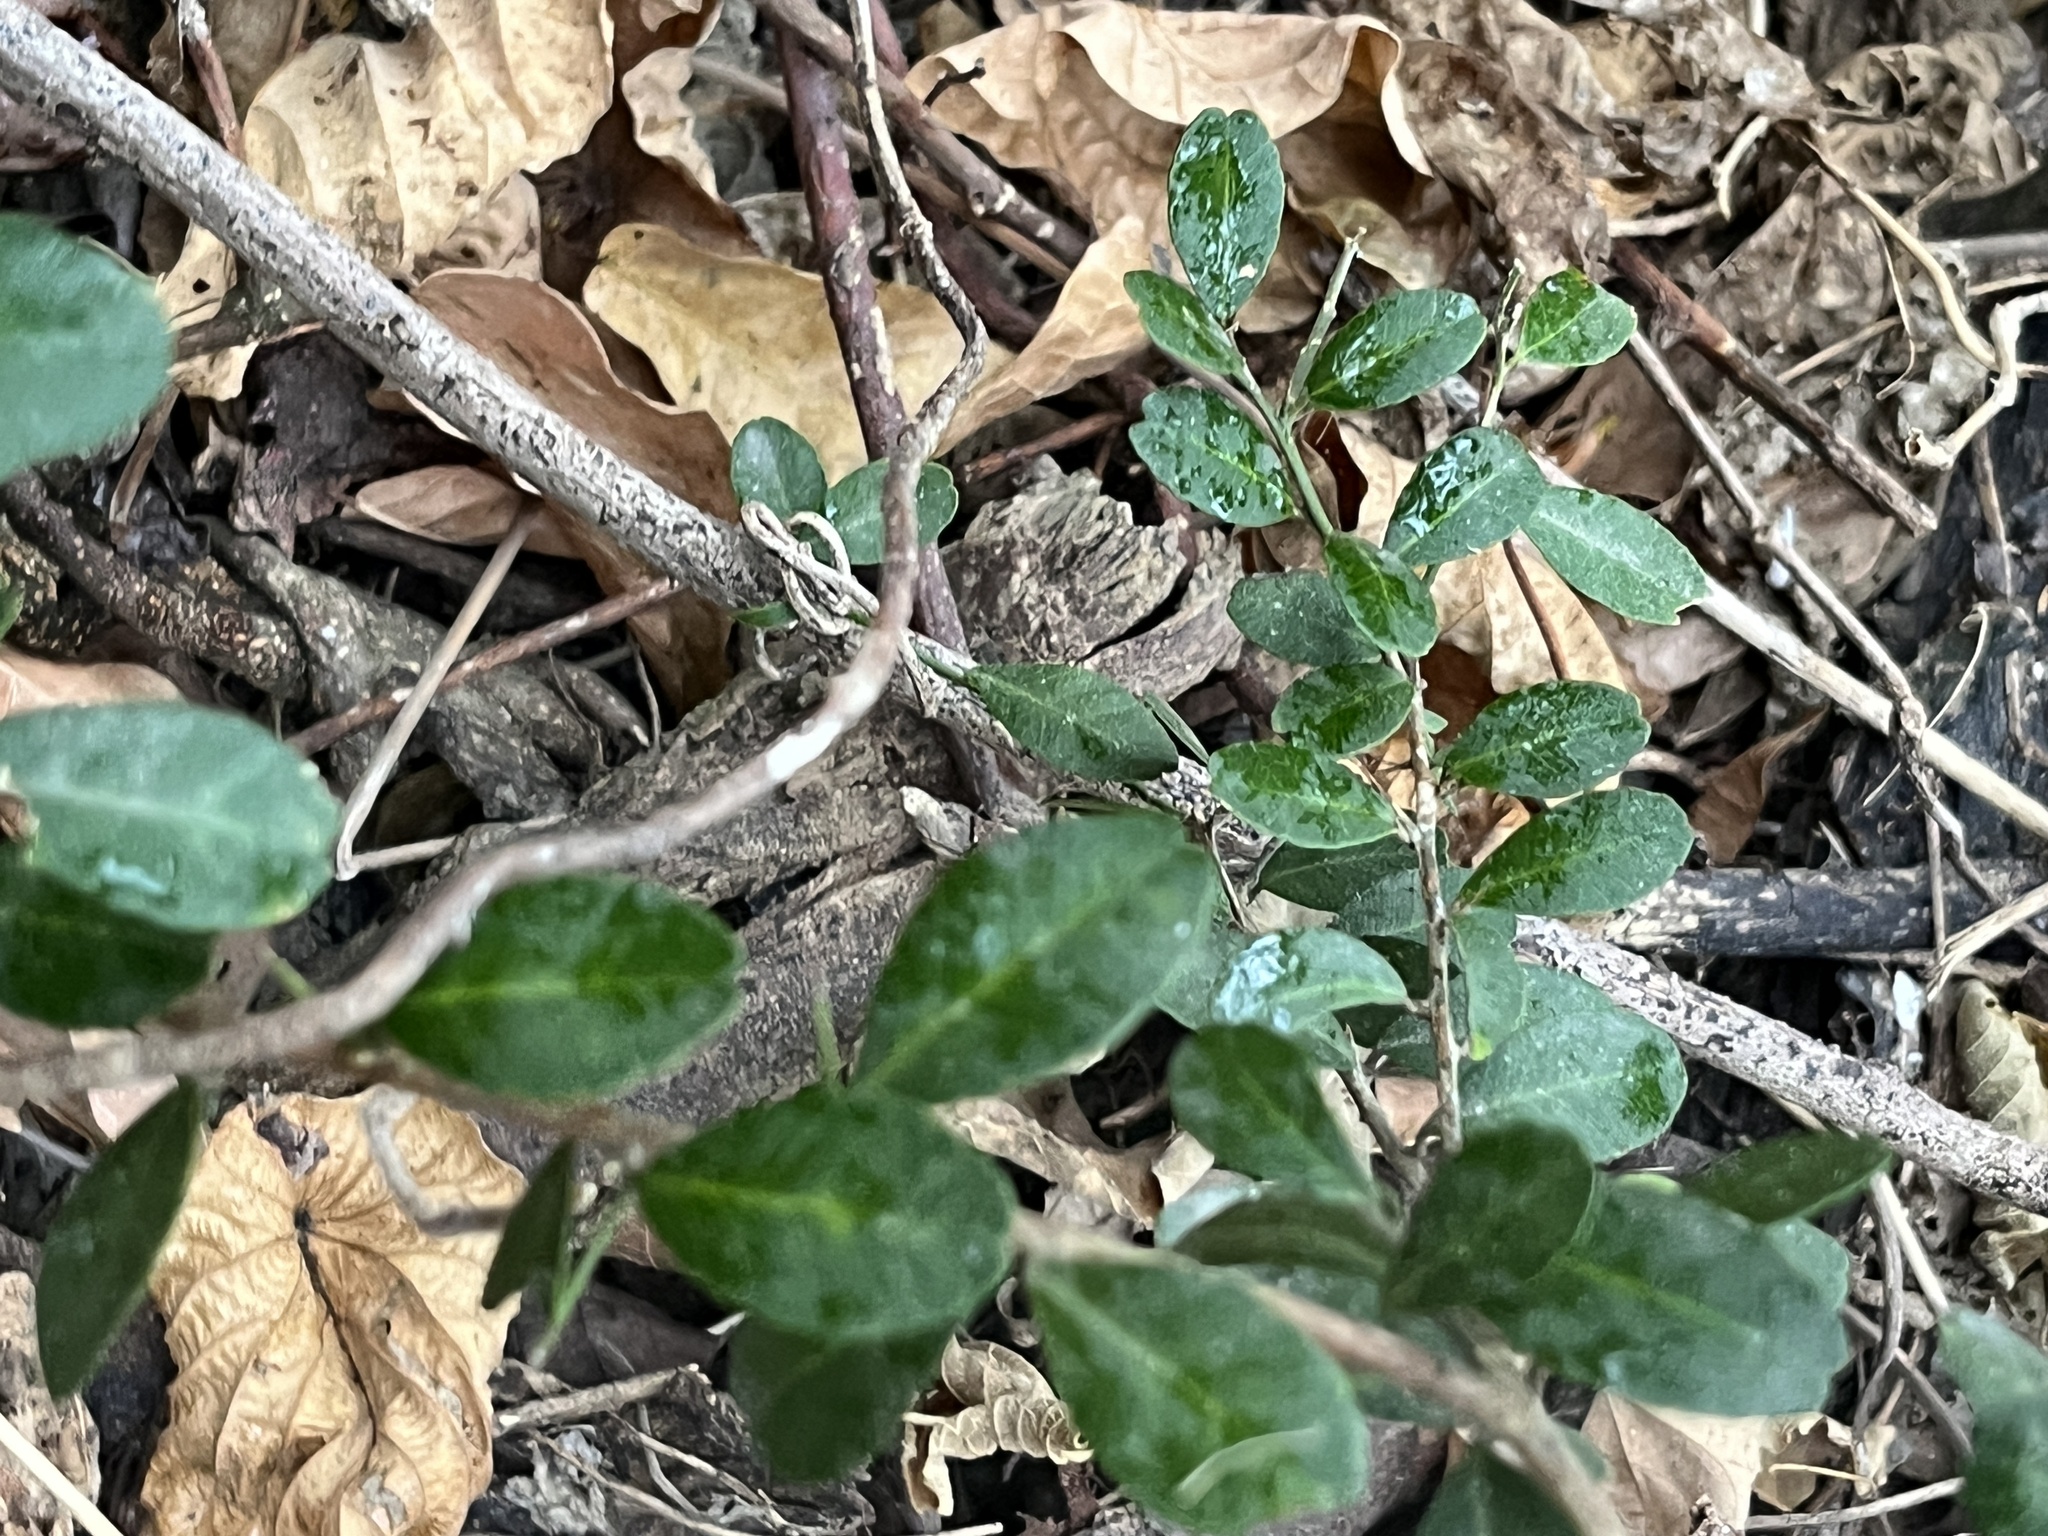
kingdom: Plantae
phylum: Tracheophyta
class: Magnoliopsida
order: Sapindales
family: Rutaceae
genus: Atalantia
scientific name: Atalantia buxifolia
